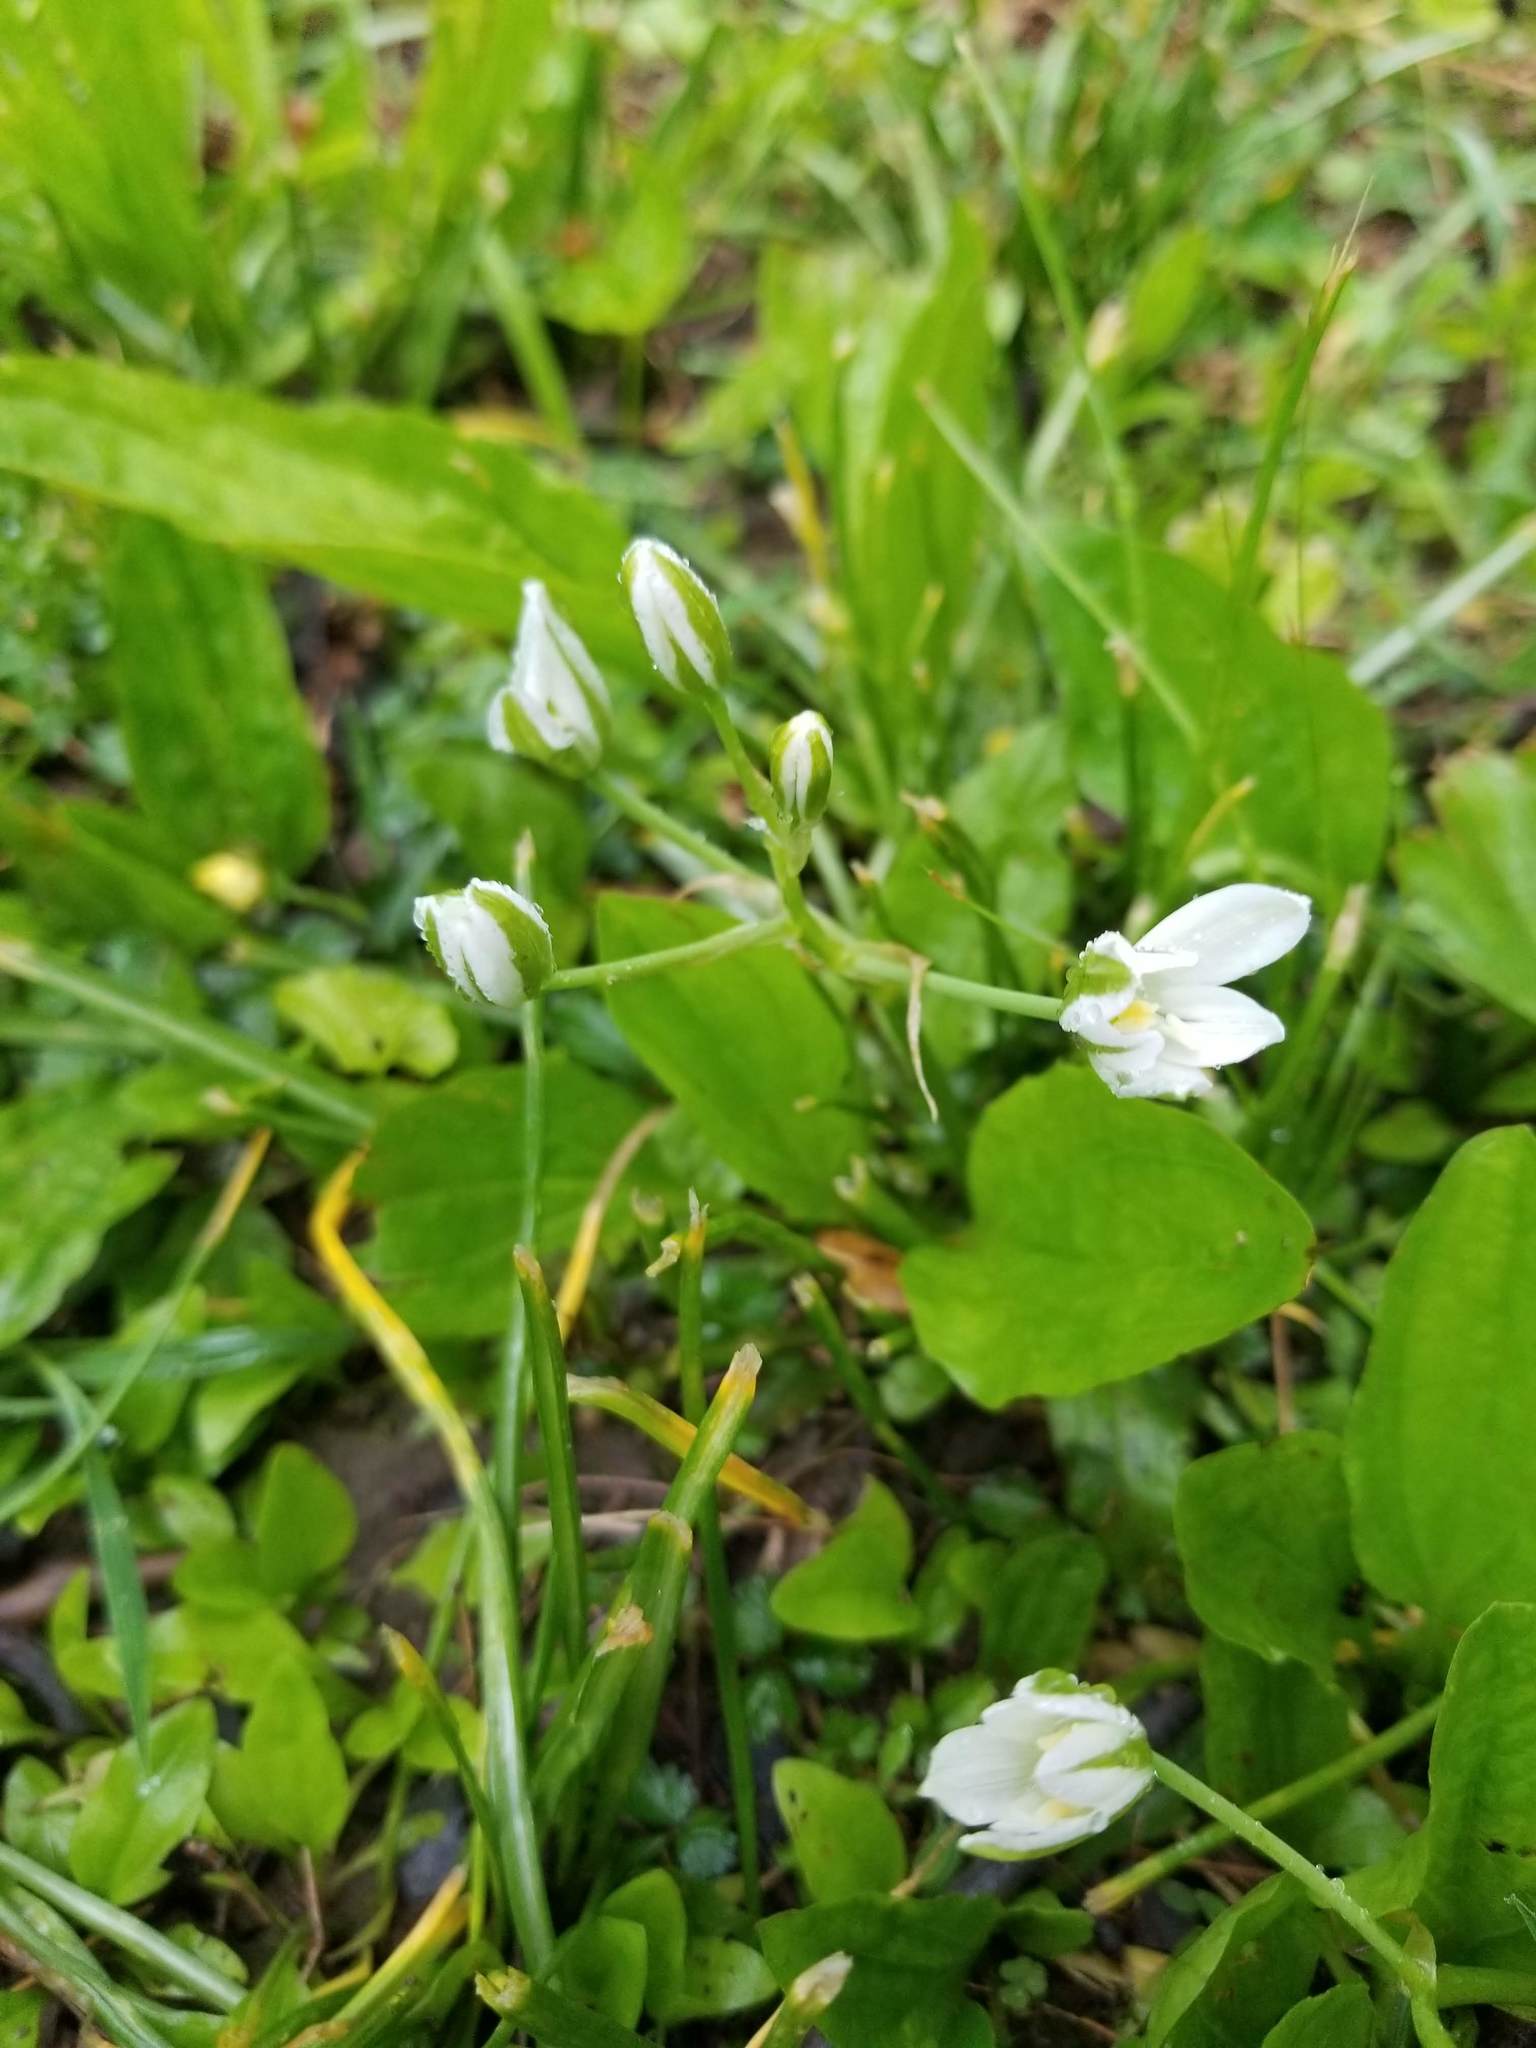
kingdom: Plantae
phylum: Tracheophyta
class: Liliopsida
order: Asparagales
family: Asparagaceae
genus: Ornithogalum
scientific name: Ornithogalum umbellatum
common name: Garden star-of-bethlehem
